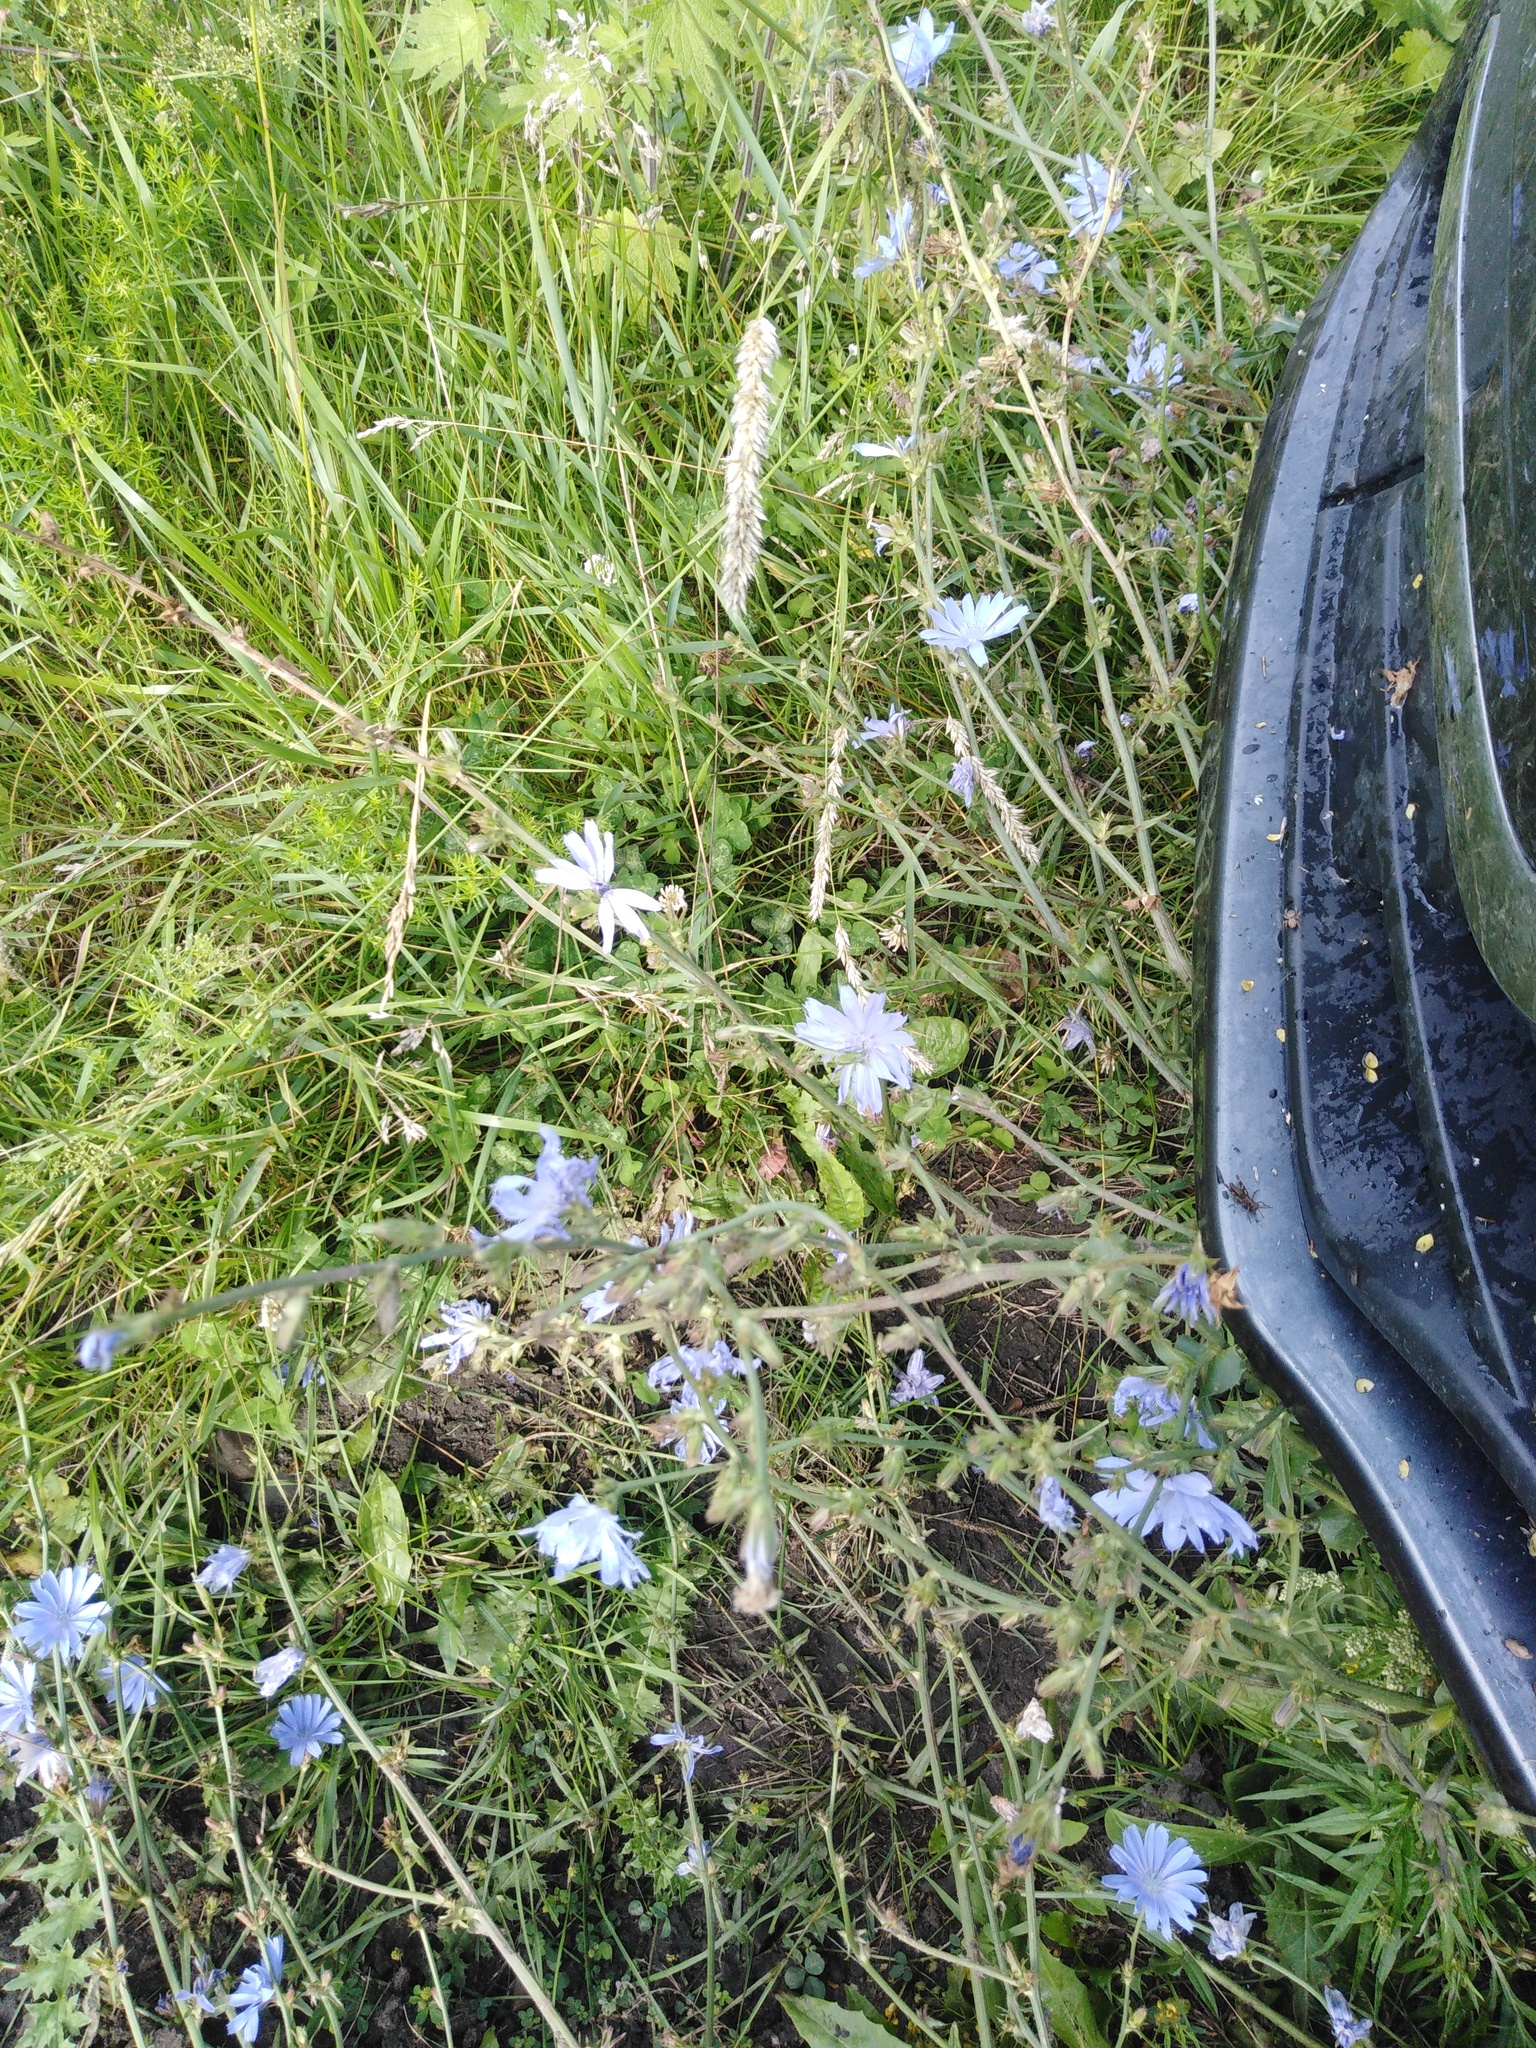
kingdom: Plantae
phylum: Tracheophyta
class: Magnoliopsida
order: Asterales
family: Asteraceae
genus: Cichorium
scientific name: Cichorium intybus
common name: Chicory
